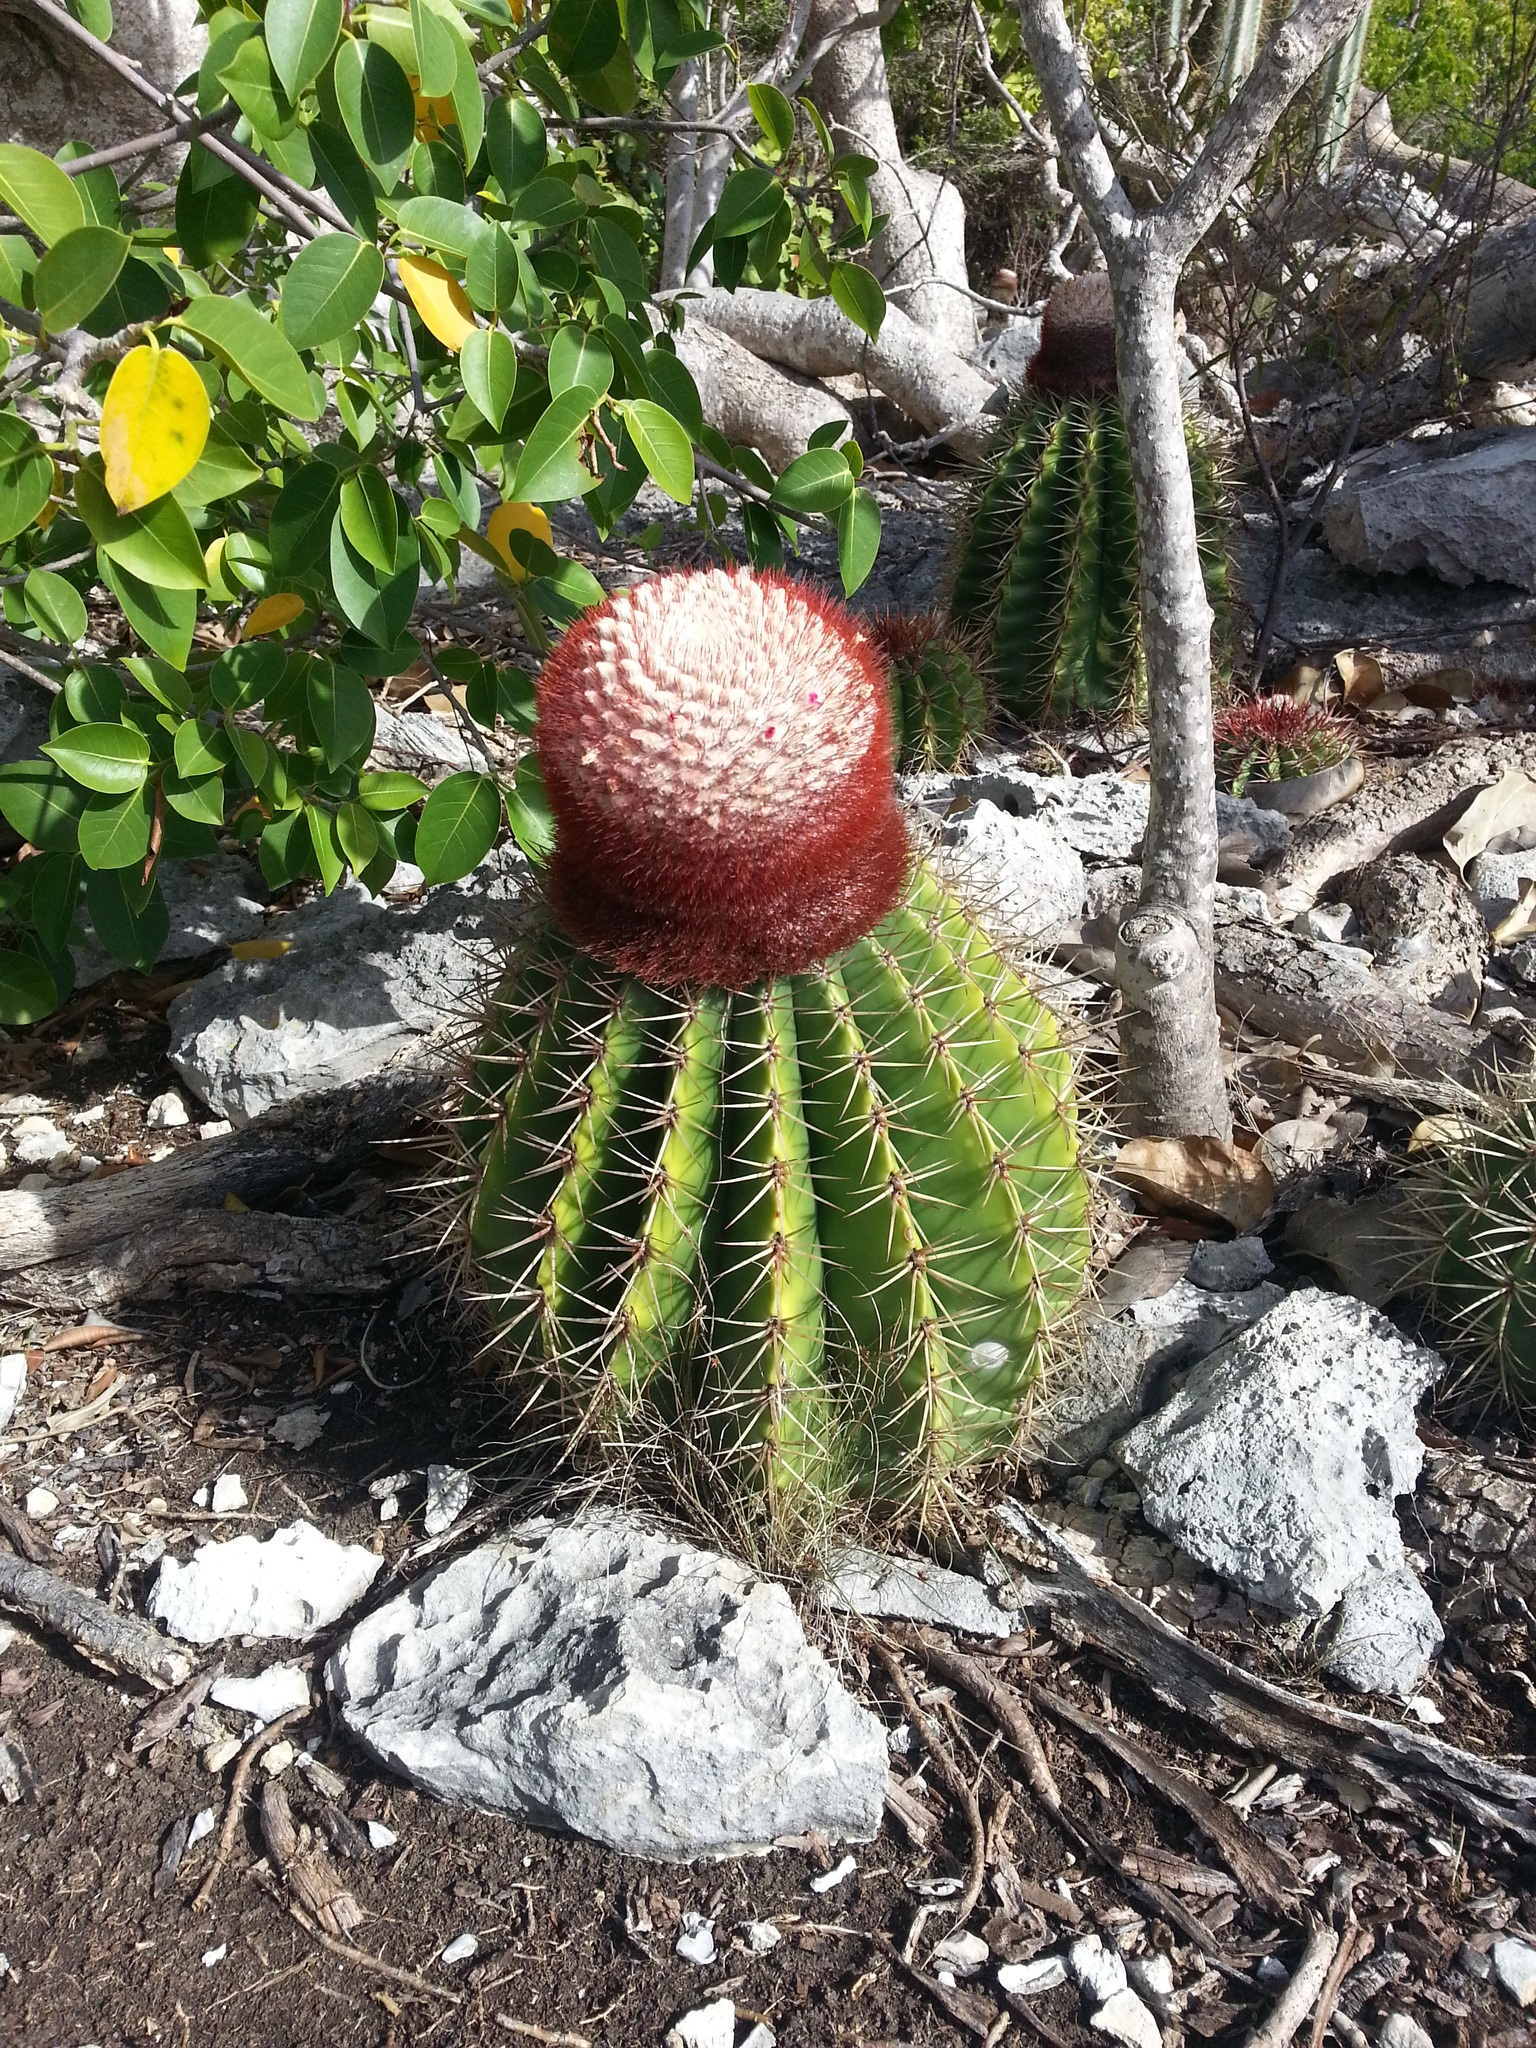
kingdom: Plantae
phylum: Tracheophyta
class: Magnoliopsida
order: Caryophyllales
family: Cactaceae
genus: Melocactus
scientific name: Melocactus intortus
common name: Barrel cactus
